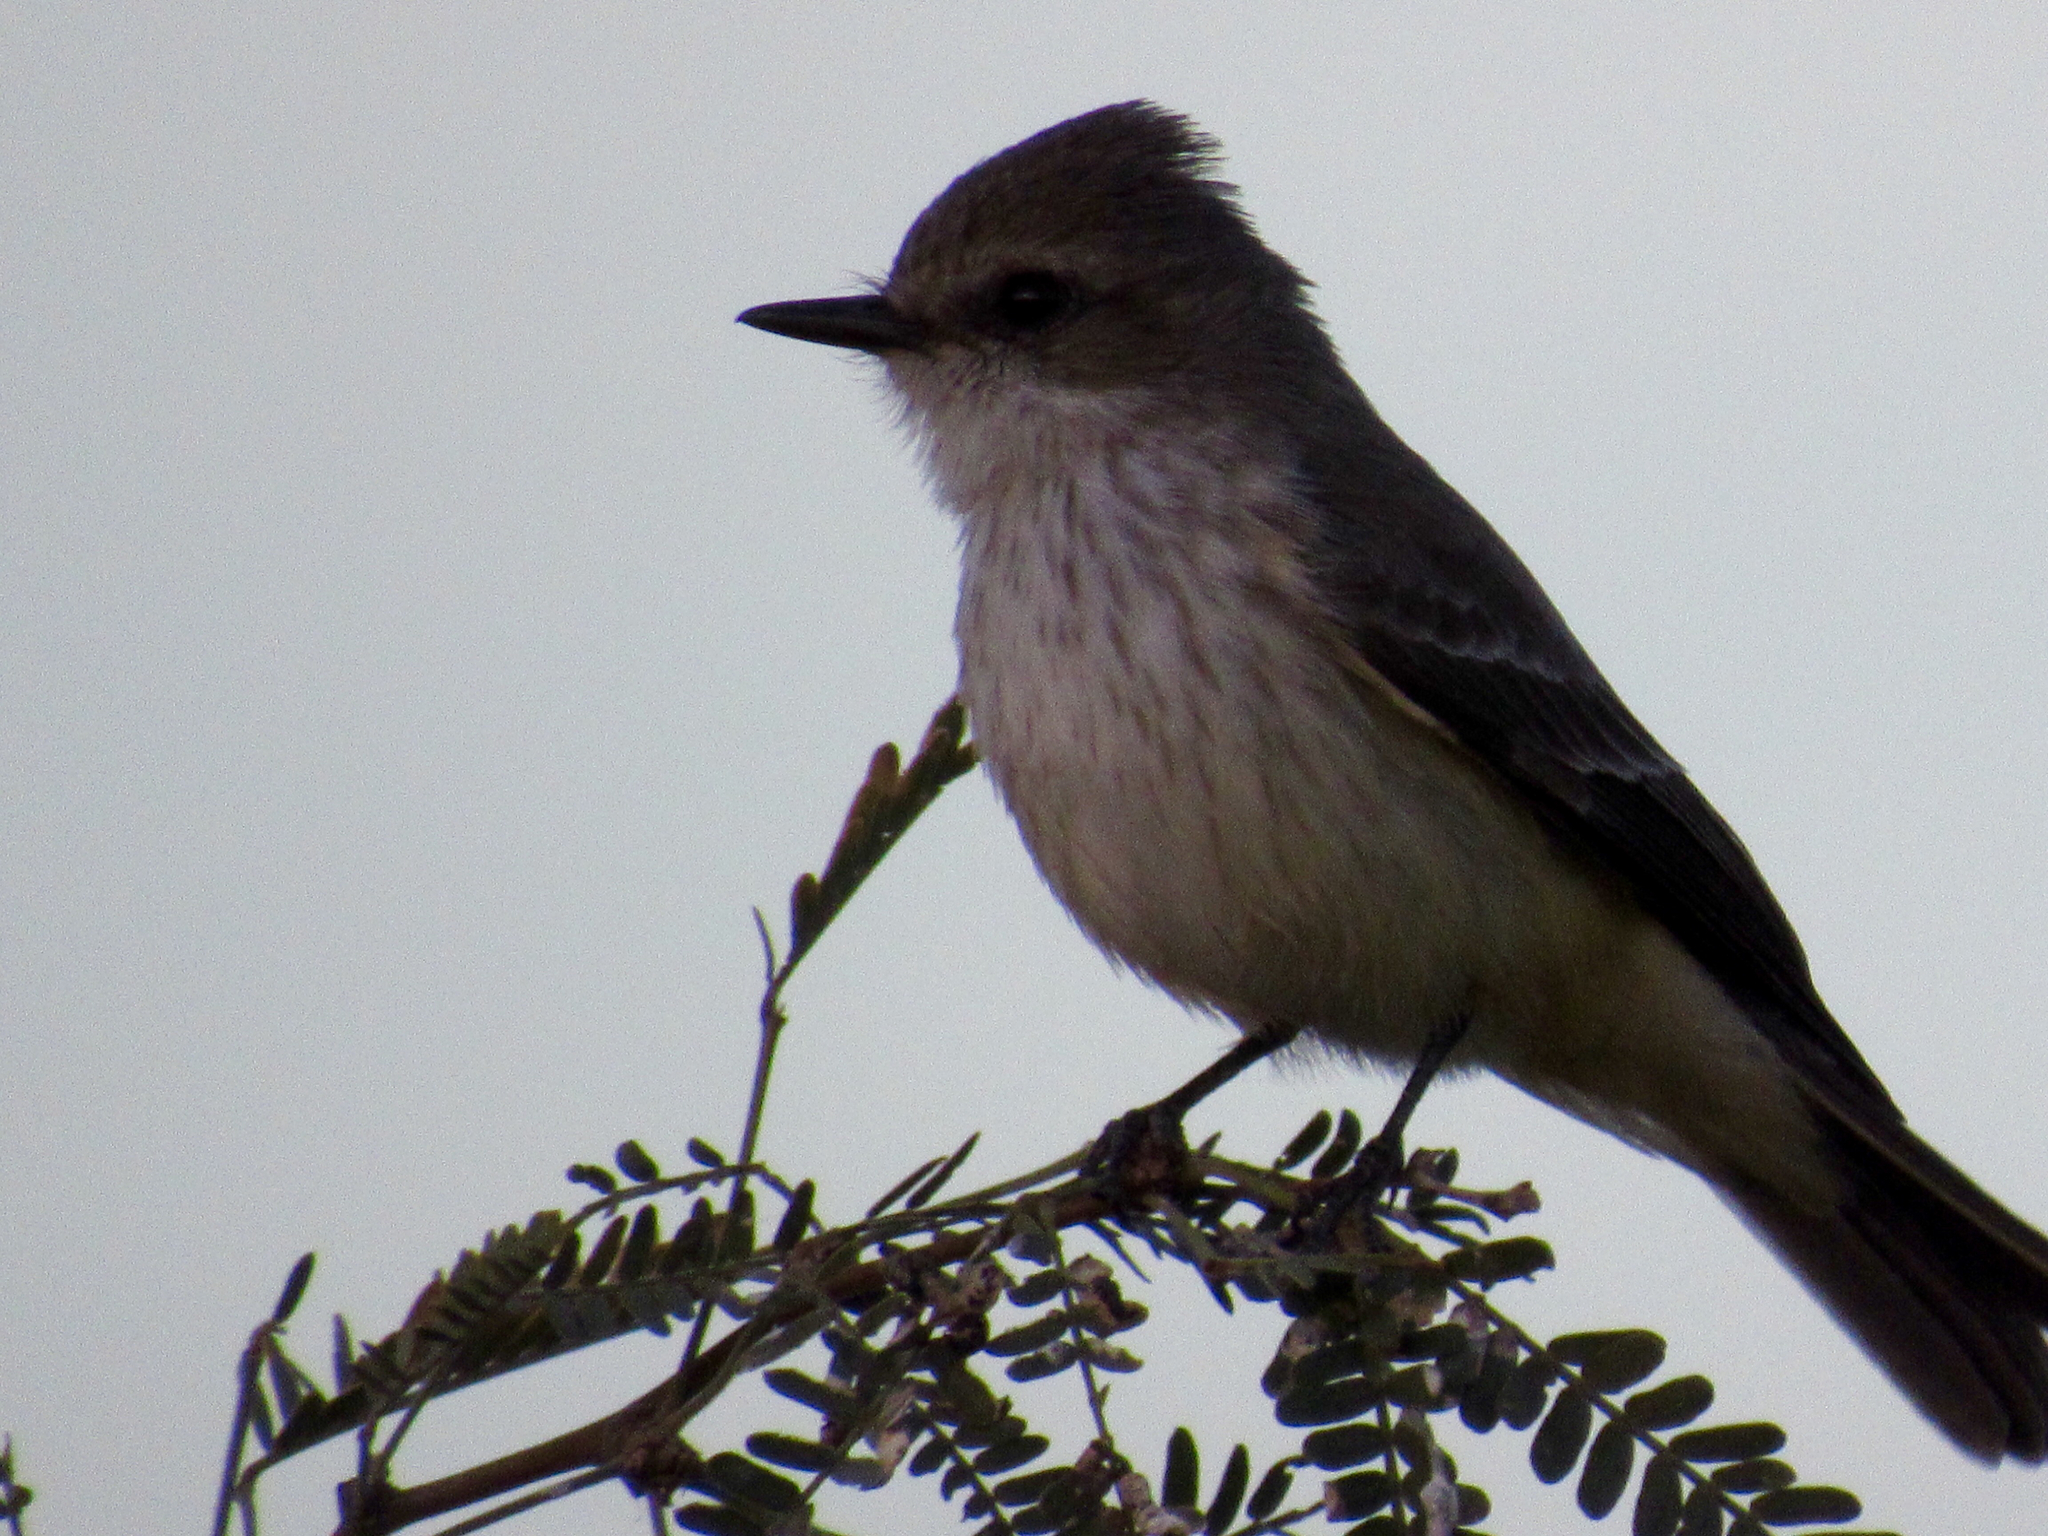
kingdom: Animalia
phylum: Chordata
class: Aves
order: Passeriformes
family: Tyrannidae
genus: Pyrocephalus
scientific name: Pyrocephalus rubinus
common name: Vermilion flycatcher
